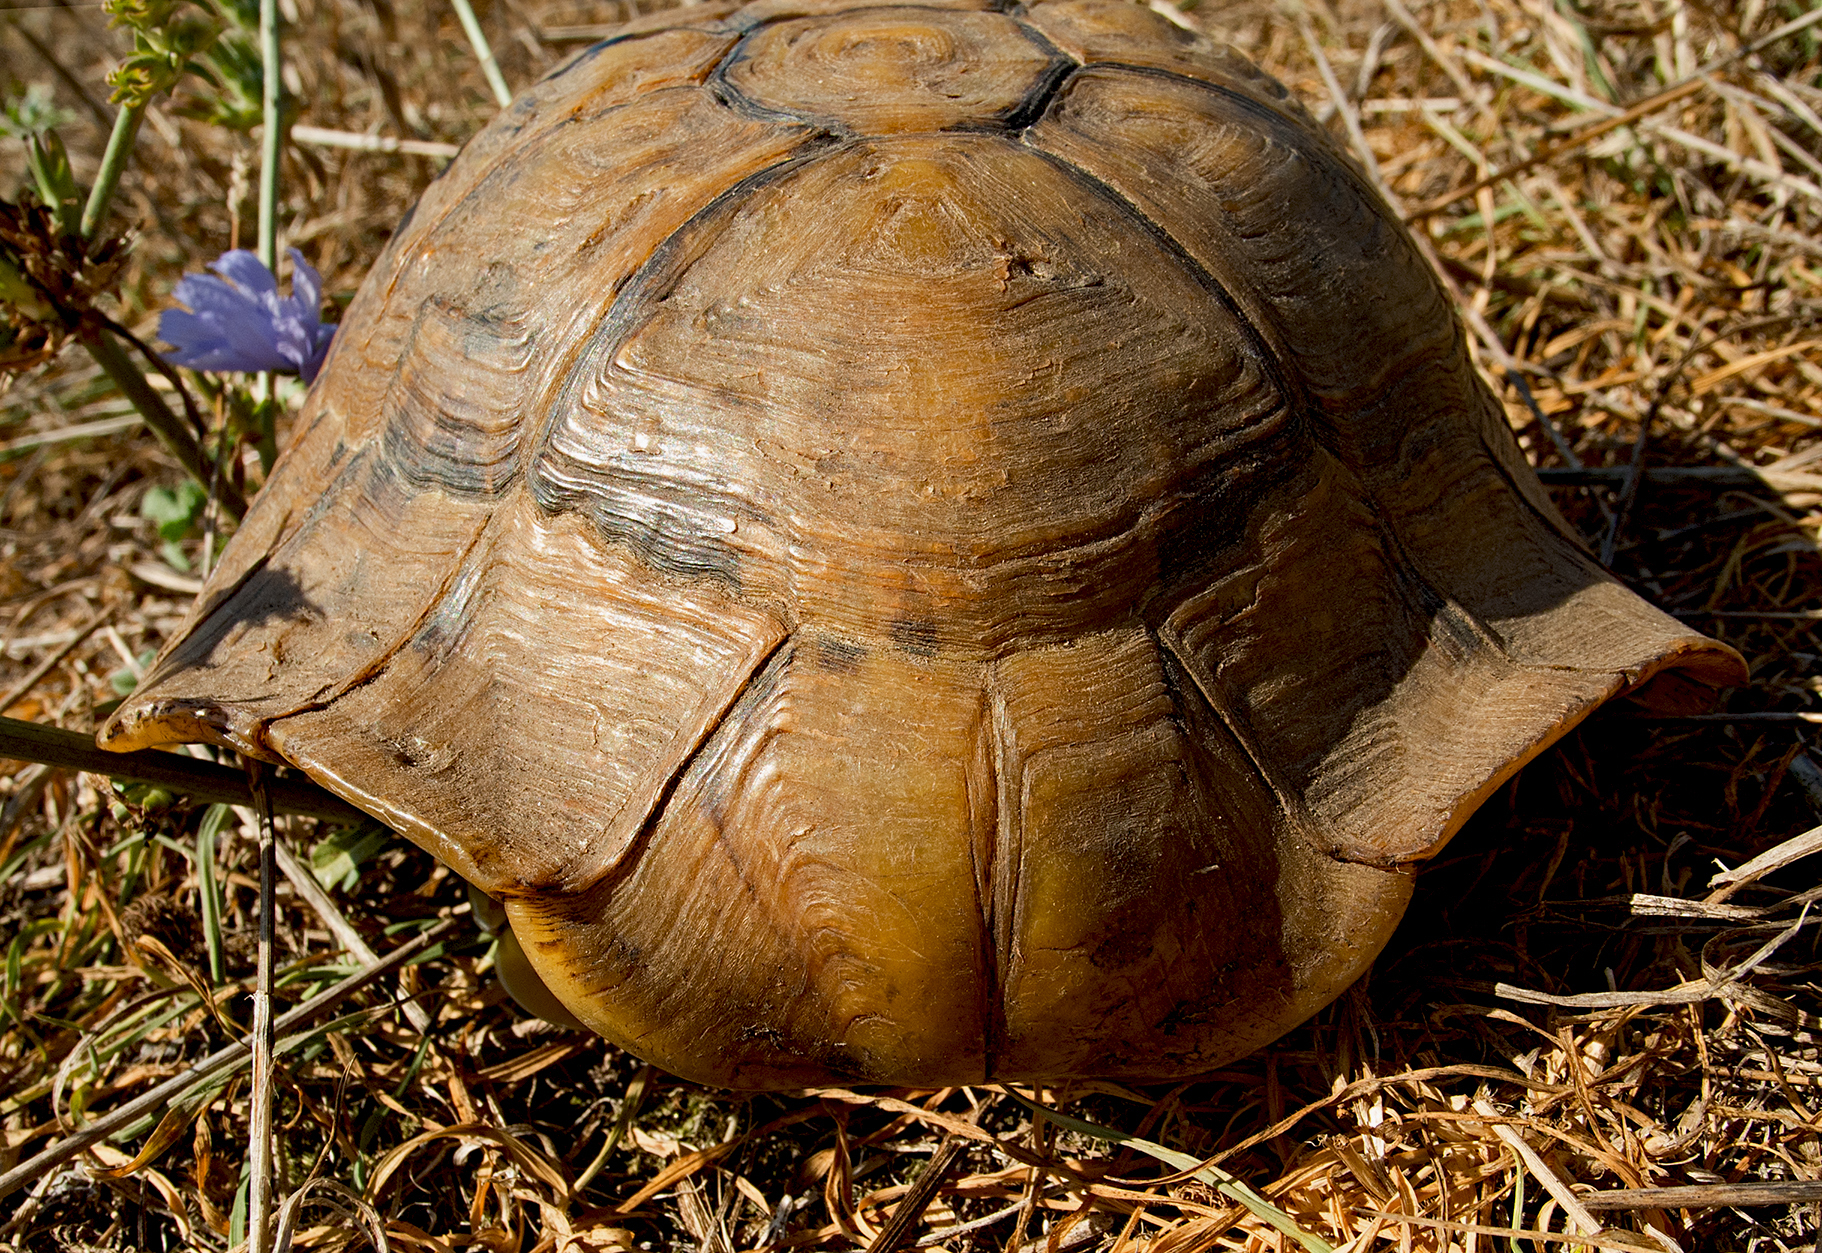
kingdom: Animalia
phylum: Chordata
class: Testudines
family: Testudinidae
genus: Testudo
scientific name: Testudo hermanni
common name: Hermann's tortoise
